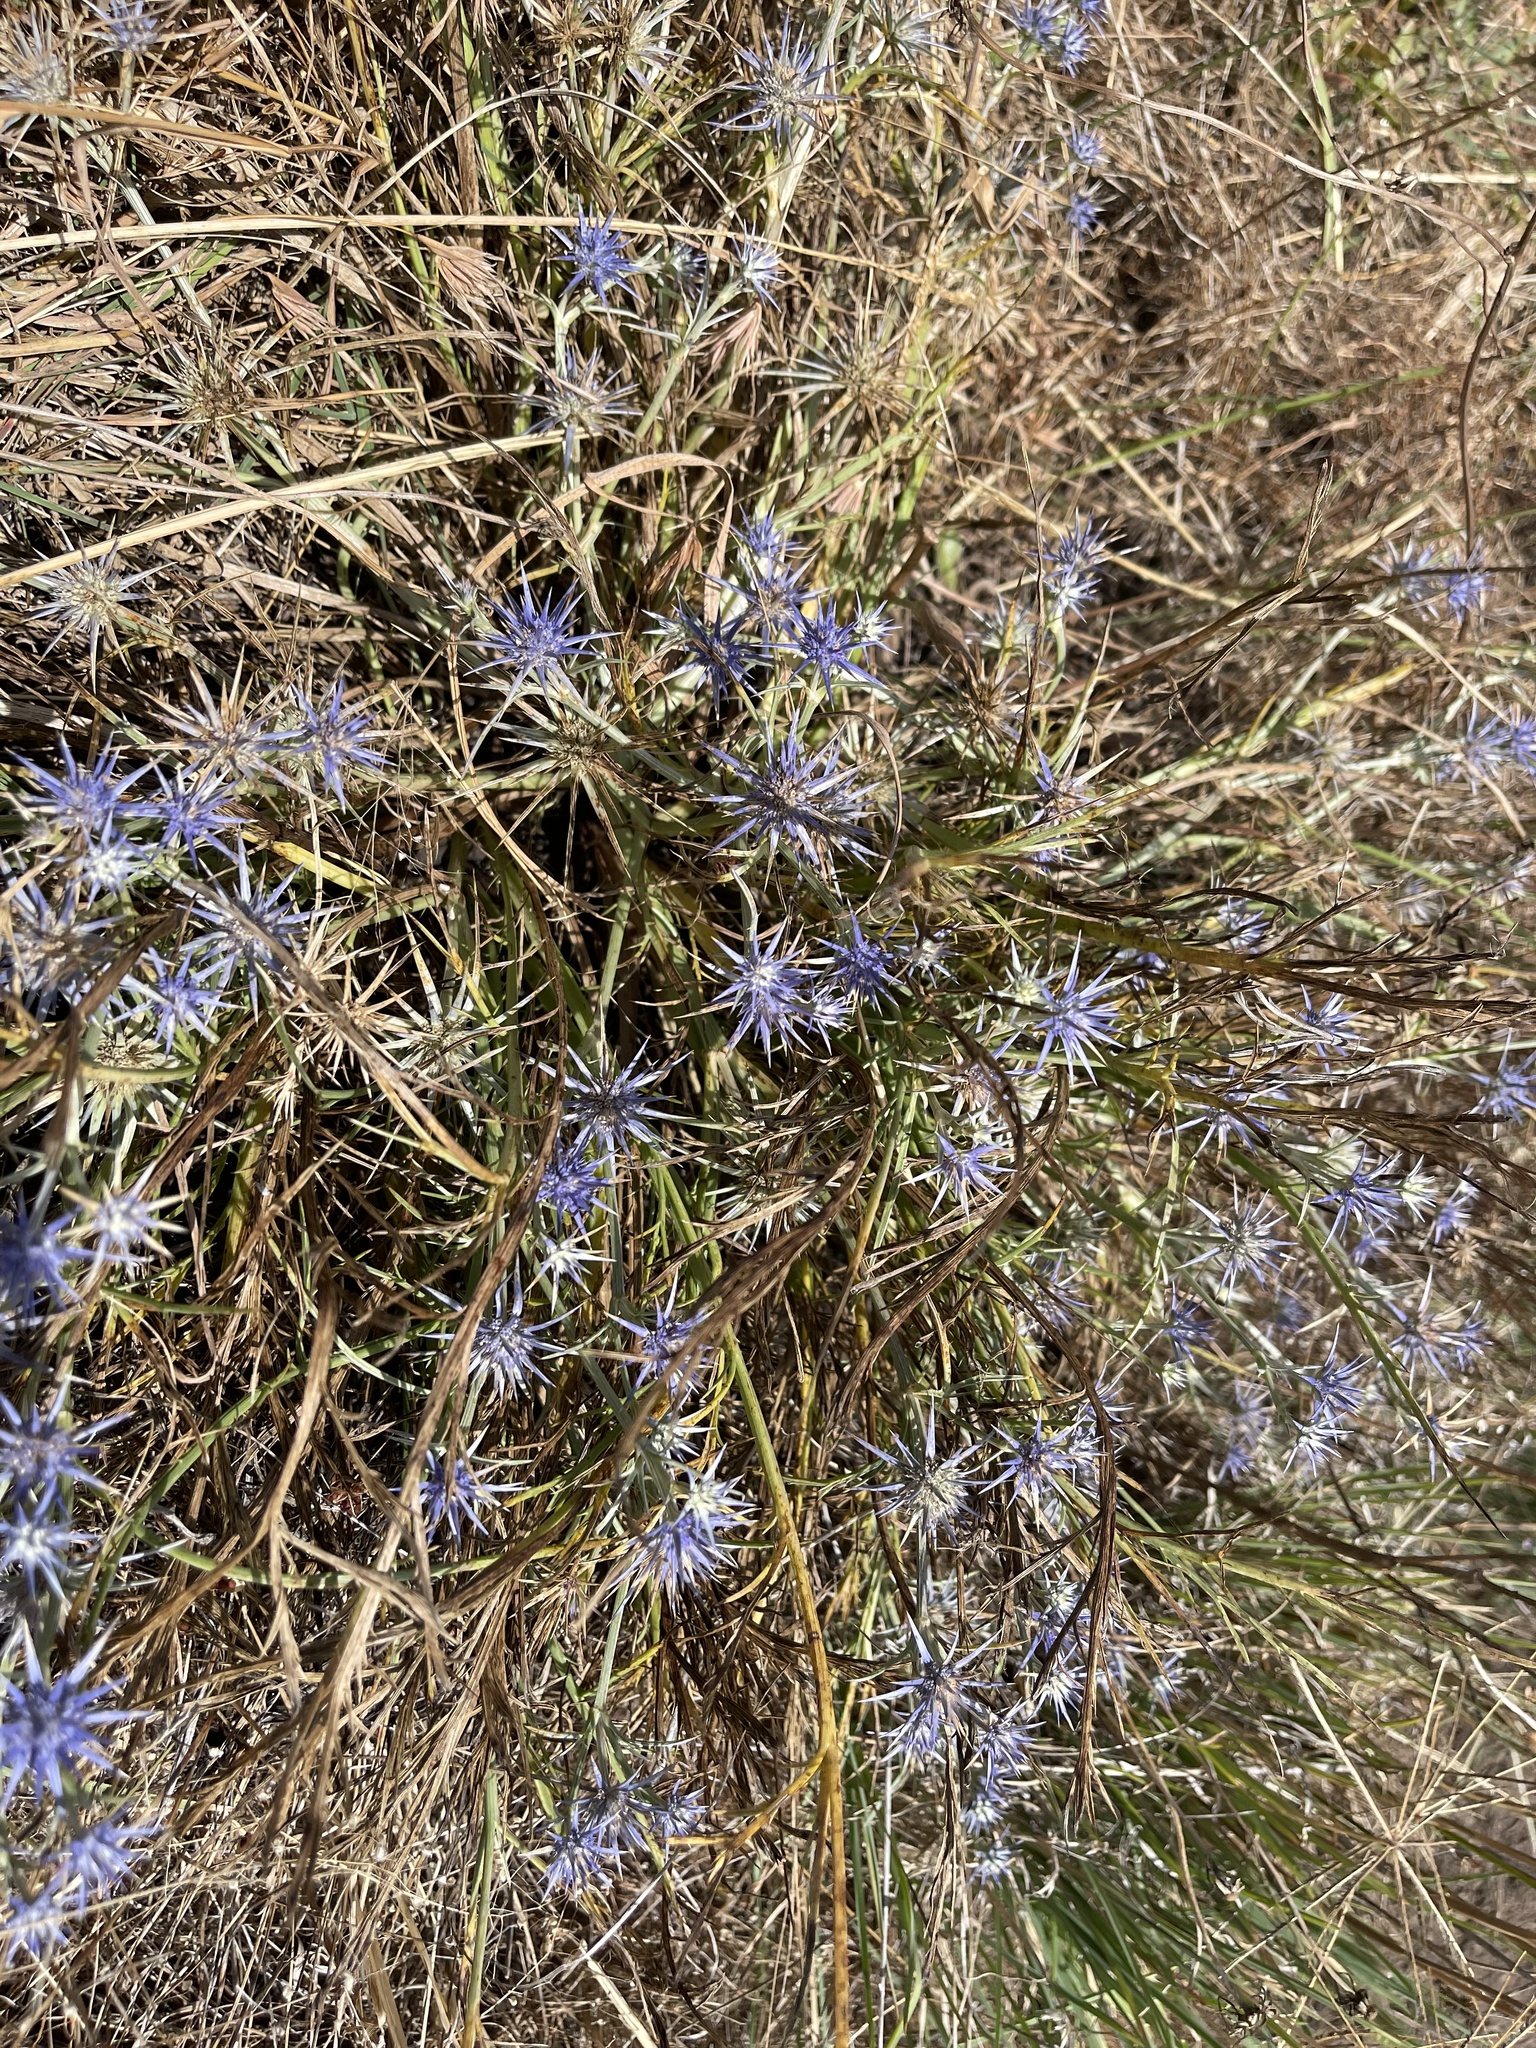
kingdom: Plantae
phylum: Tracheophyta
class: Magnoliopsida
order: Apiales
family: Apiaceae
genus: Eryngium
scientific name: Eryngium ovinum
